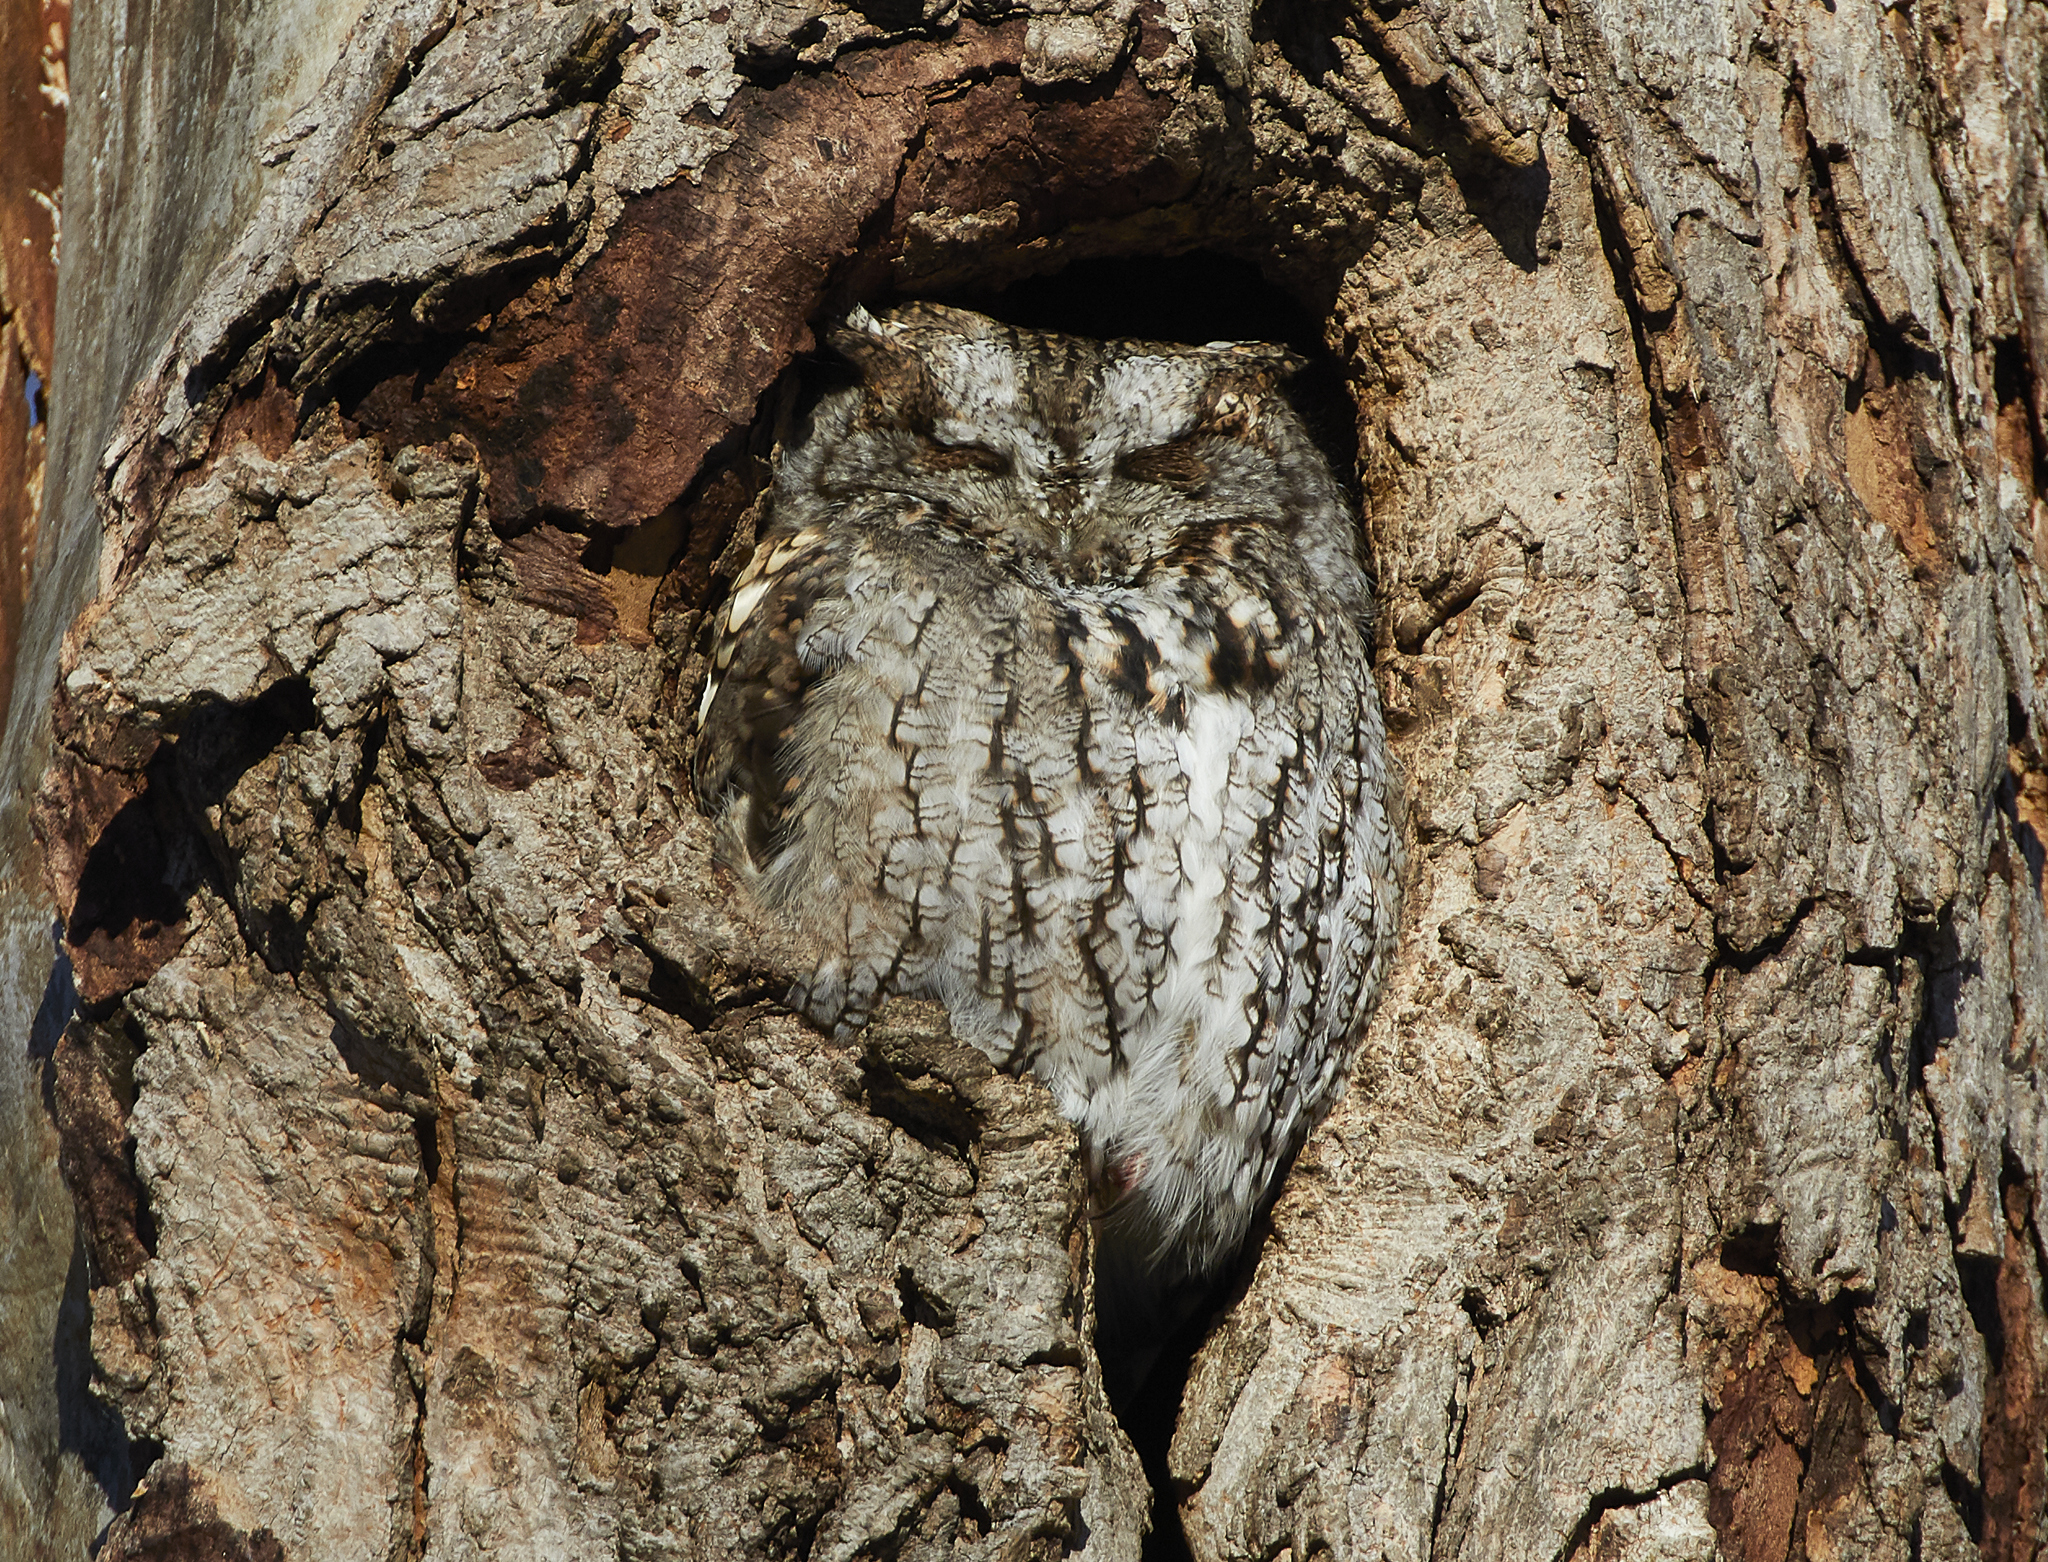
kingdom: Animalia
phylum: Chordata
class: Aves
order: Strigiformes
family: Strigidae
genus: Megascops
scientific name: Megascops asio
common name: Eastern screech-owl
